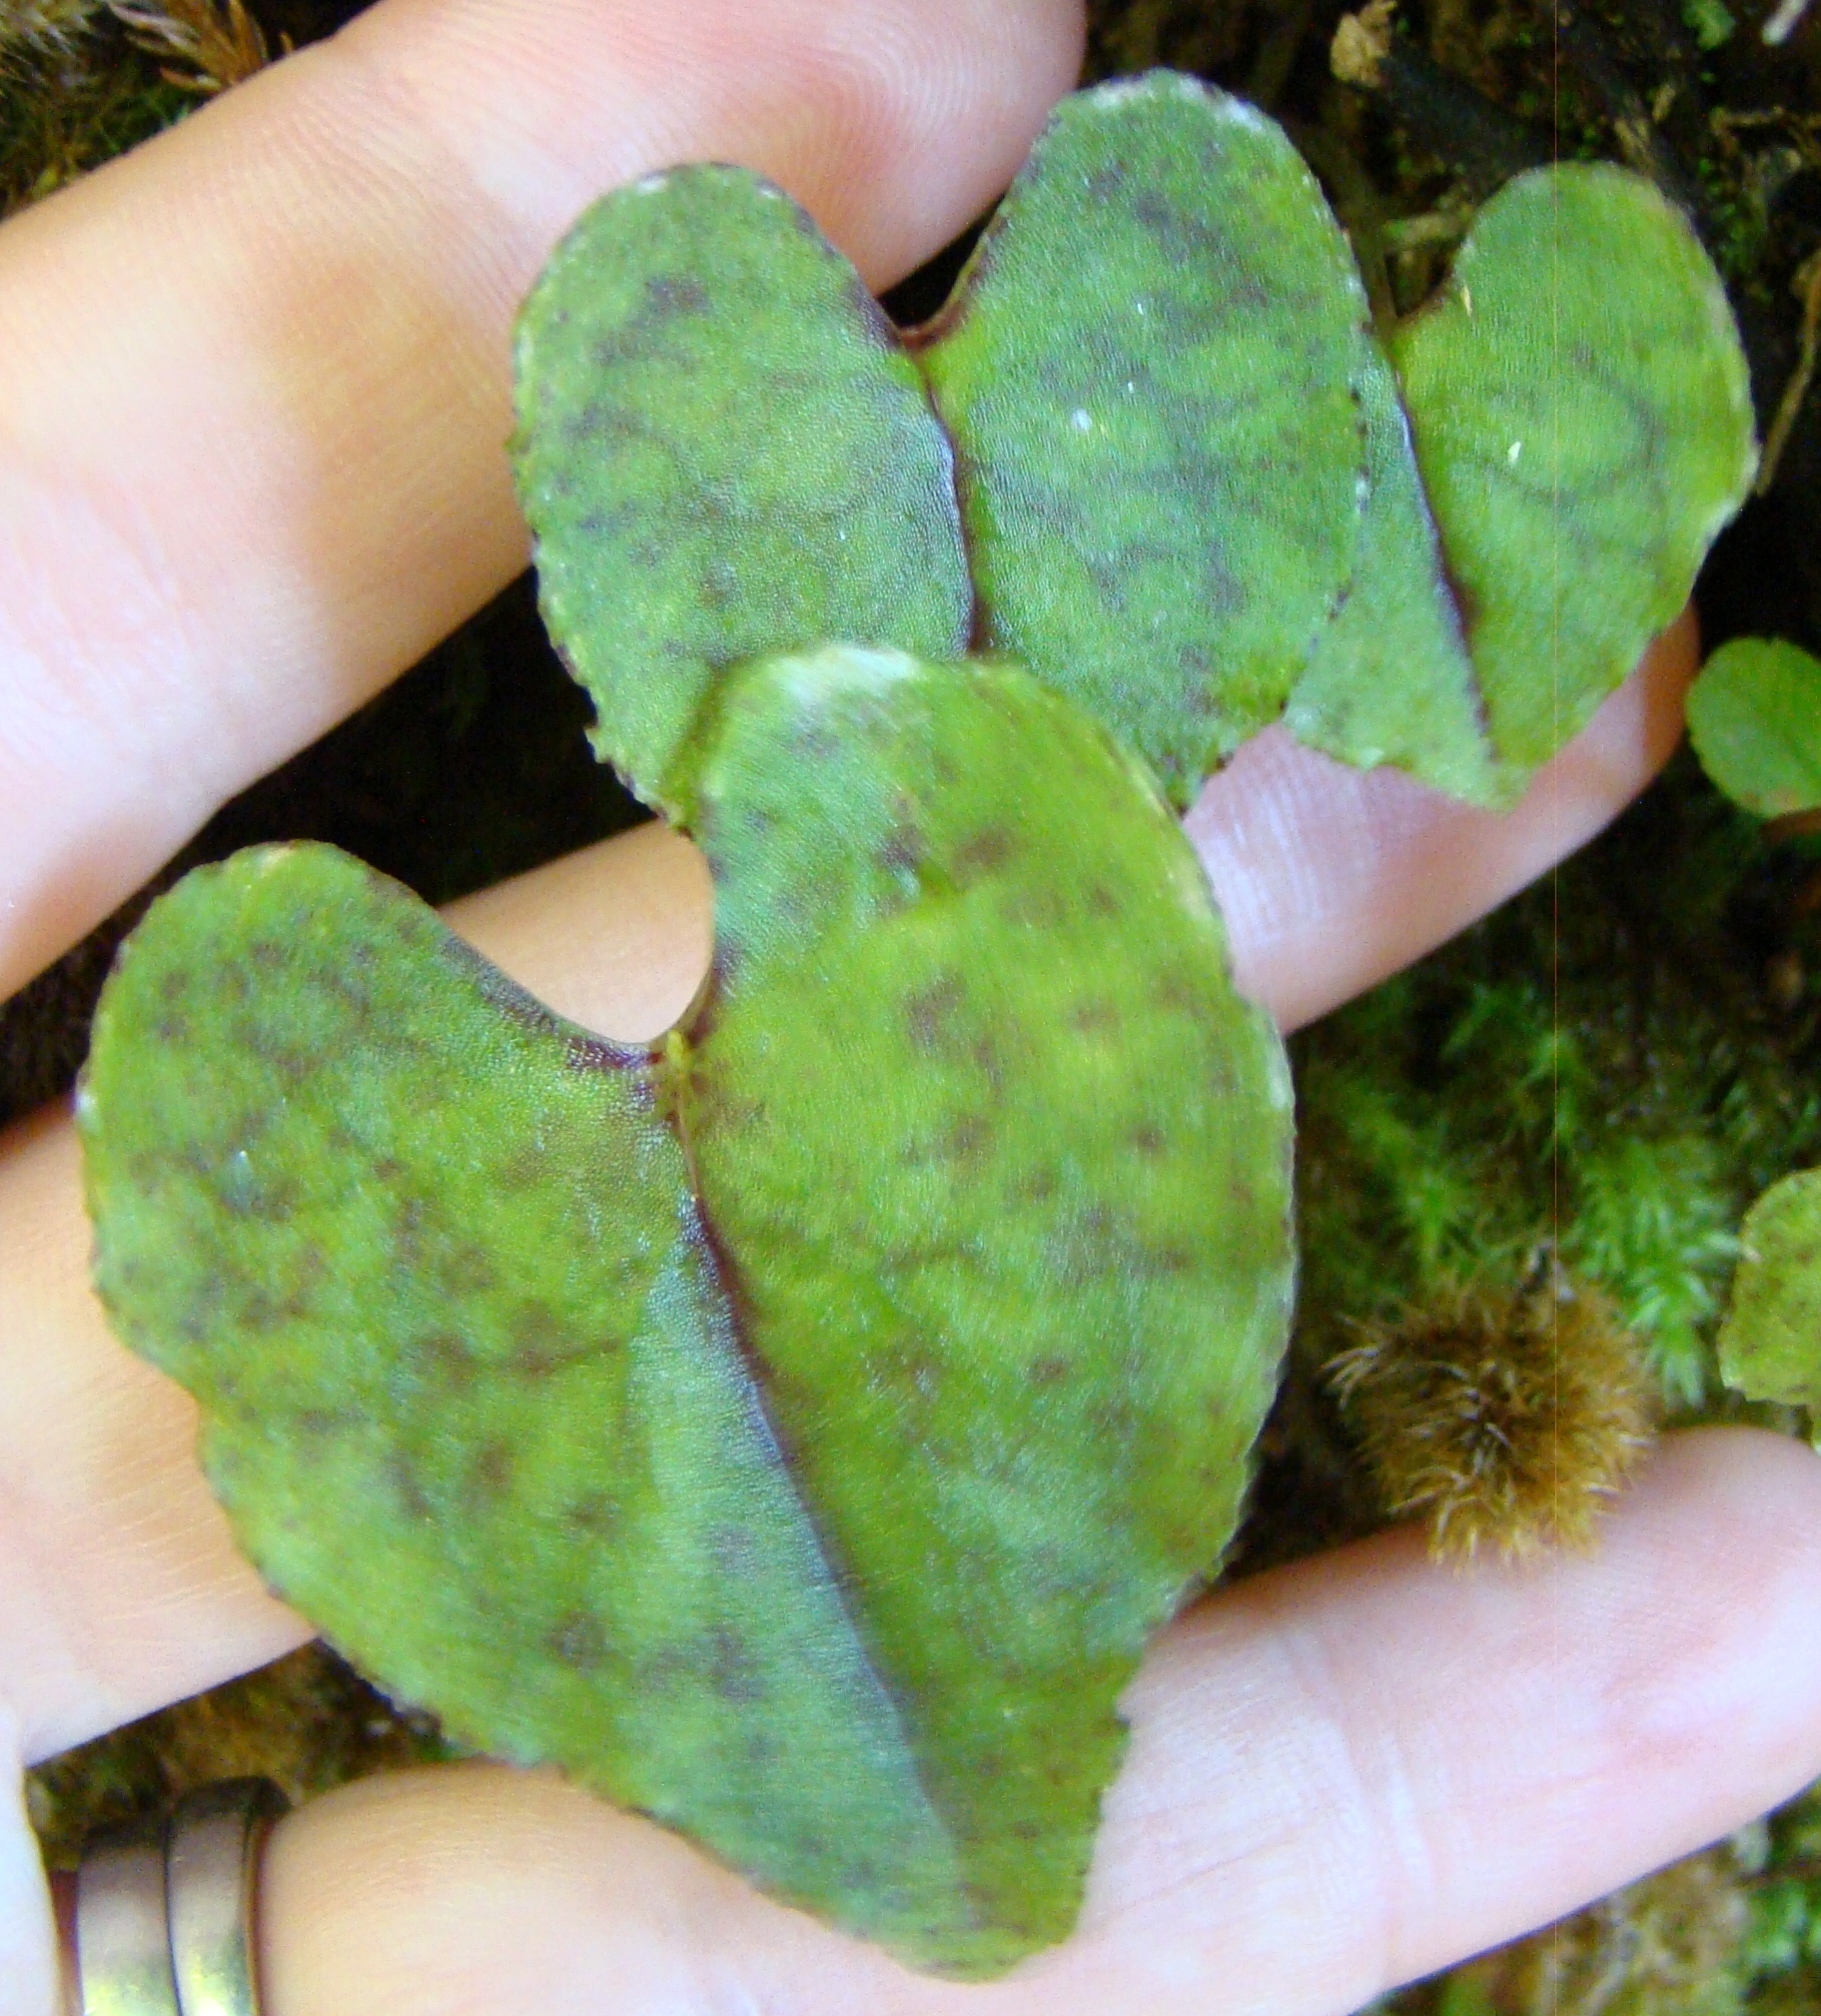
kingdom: Plantae
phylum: Tracheophyta
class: Liliopsida
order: Asparagales
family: Orchidaceae
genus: Corybas
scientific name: Corybas acuminatus
